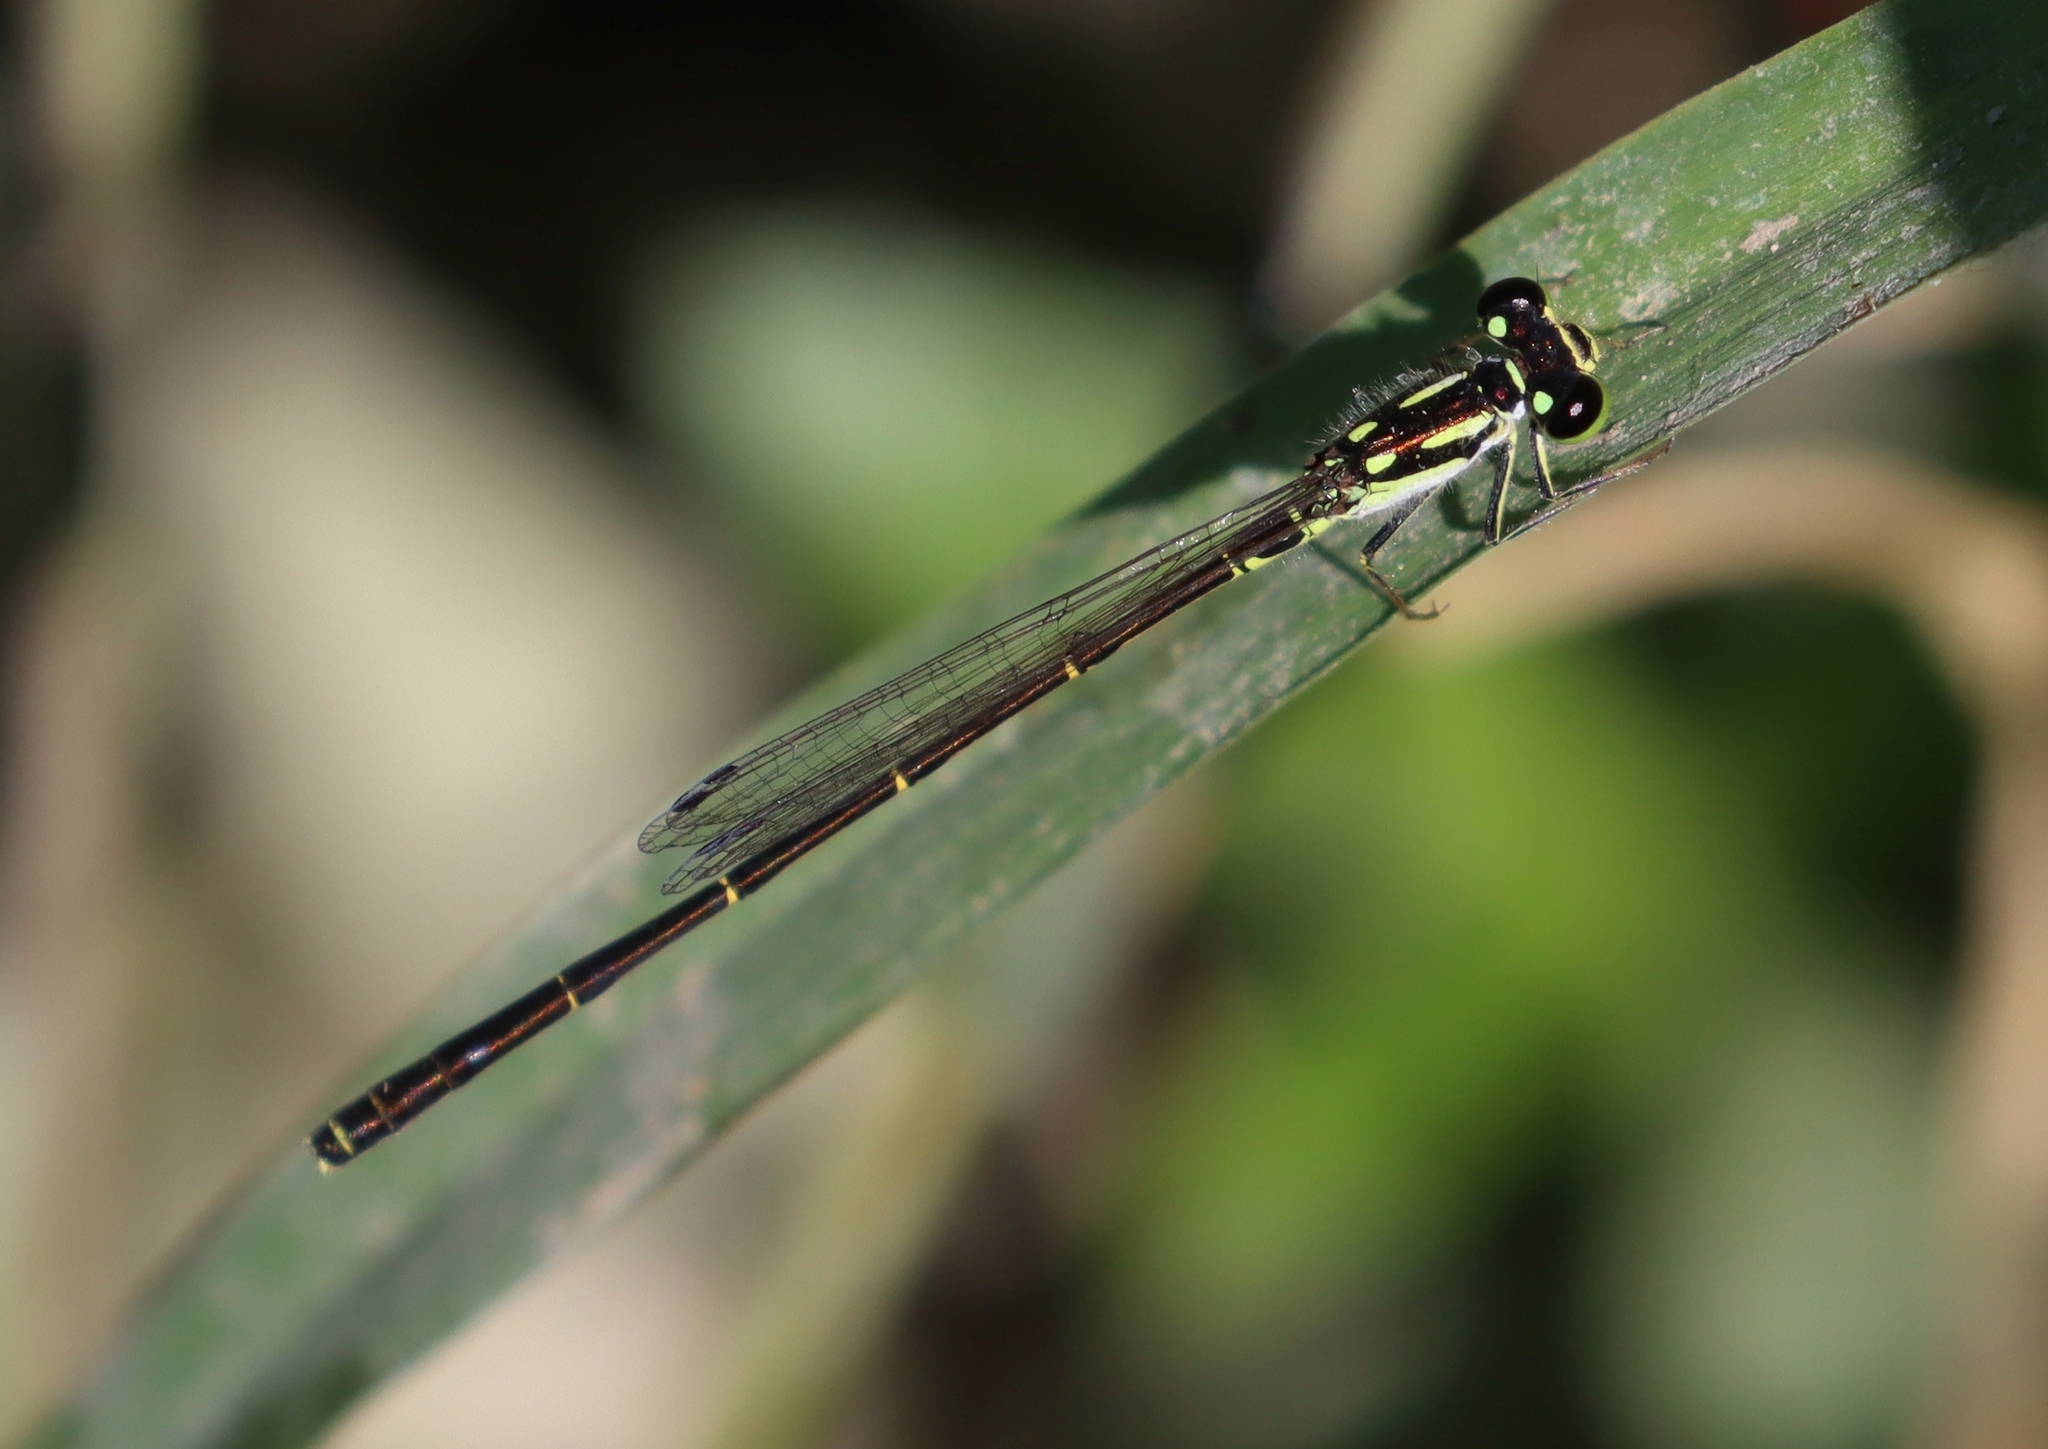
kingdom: Animalia
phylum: Arthropoda
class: Insecta
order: Odonata
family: Coenagrionidae
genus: Ischnura
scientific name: Ischnura posita
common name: Fragile forktail
